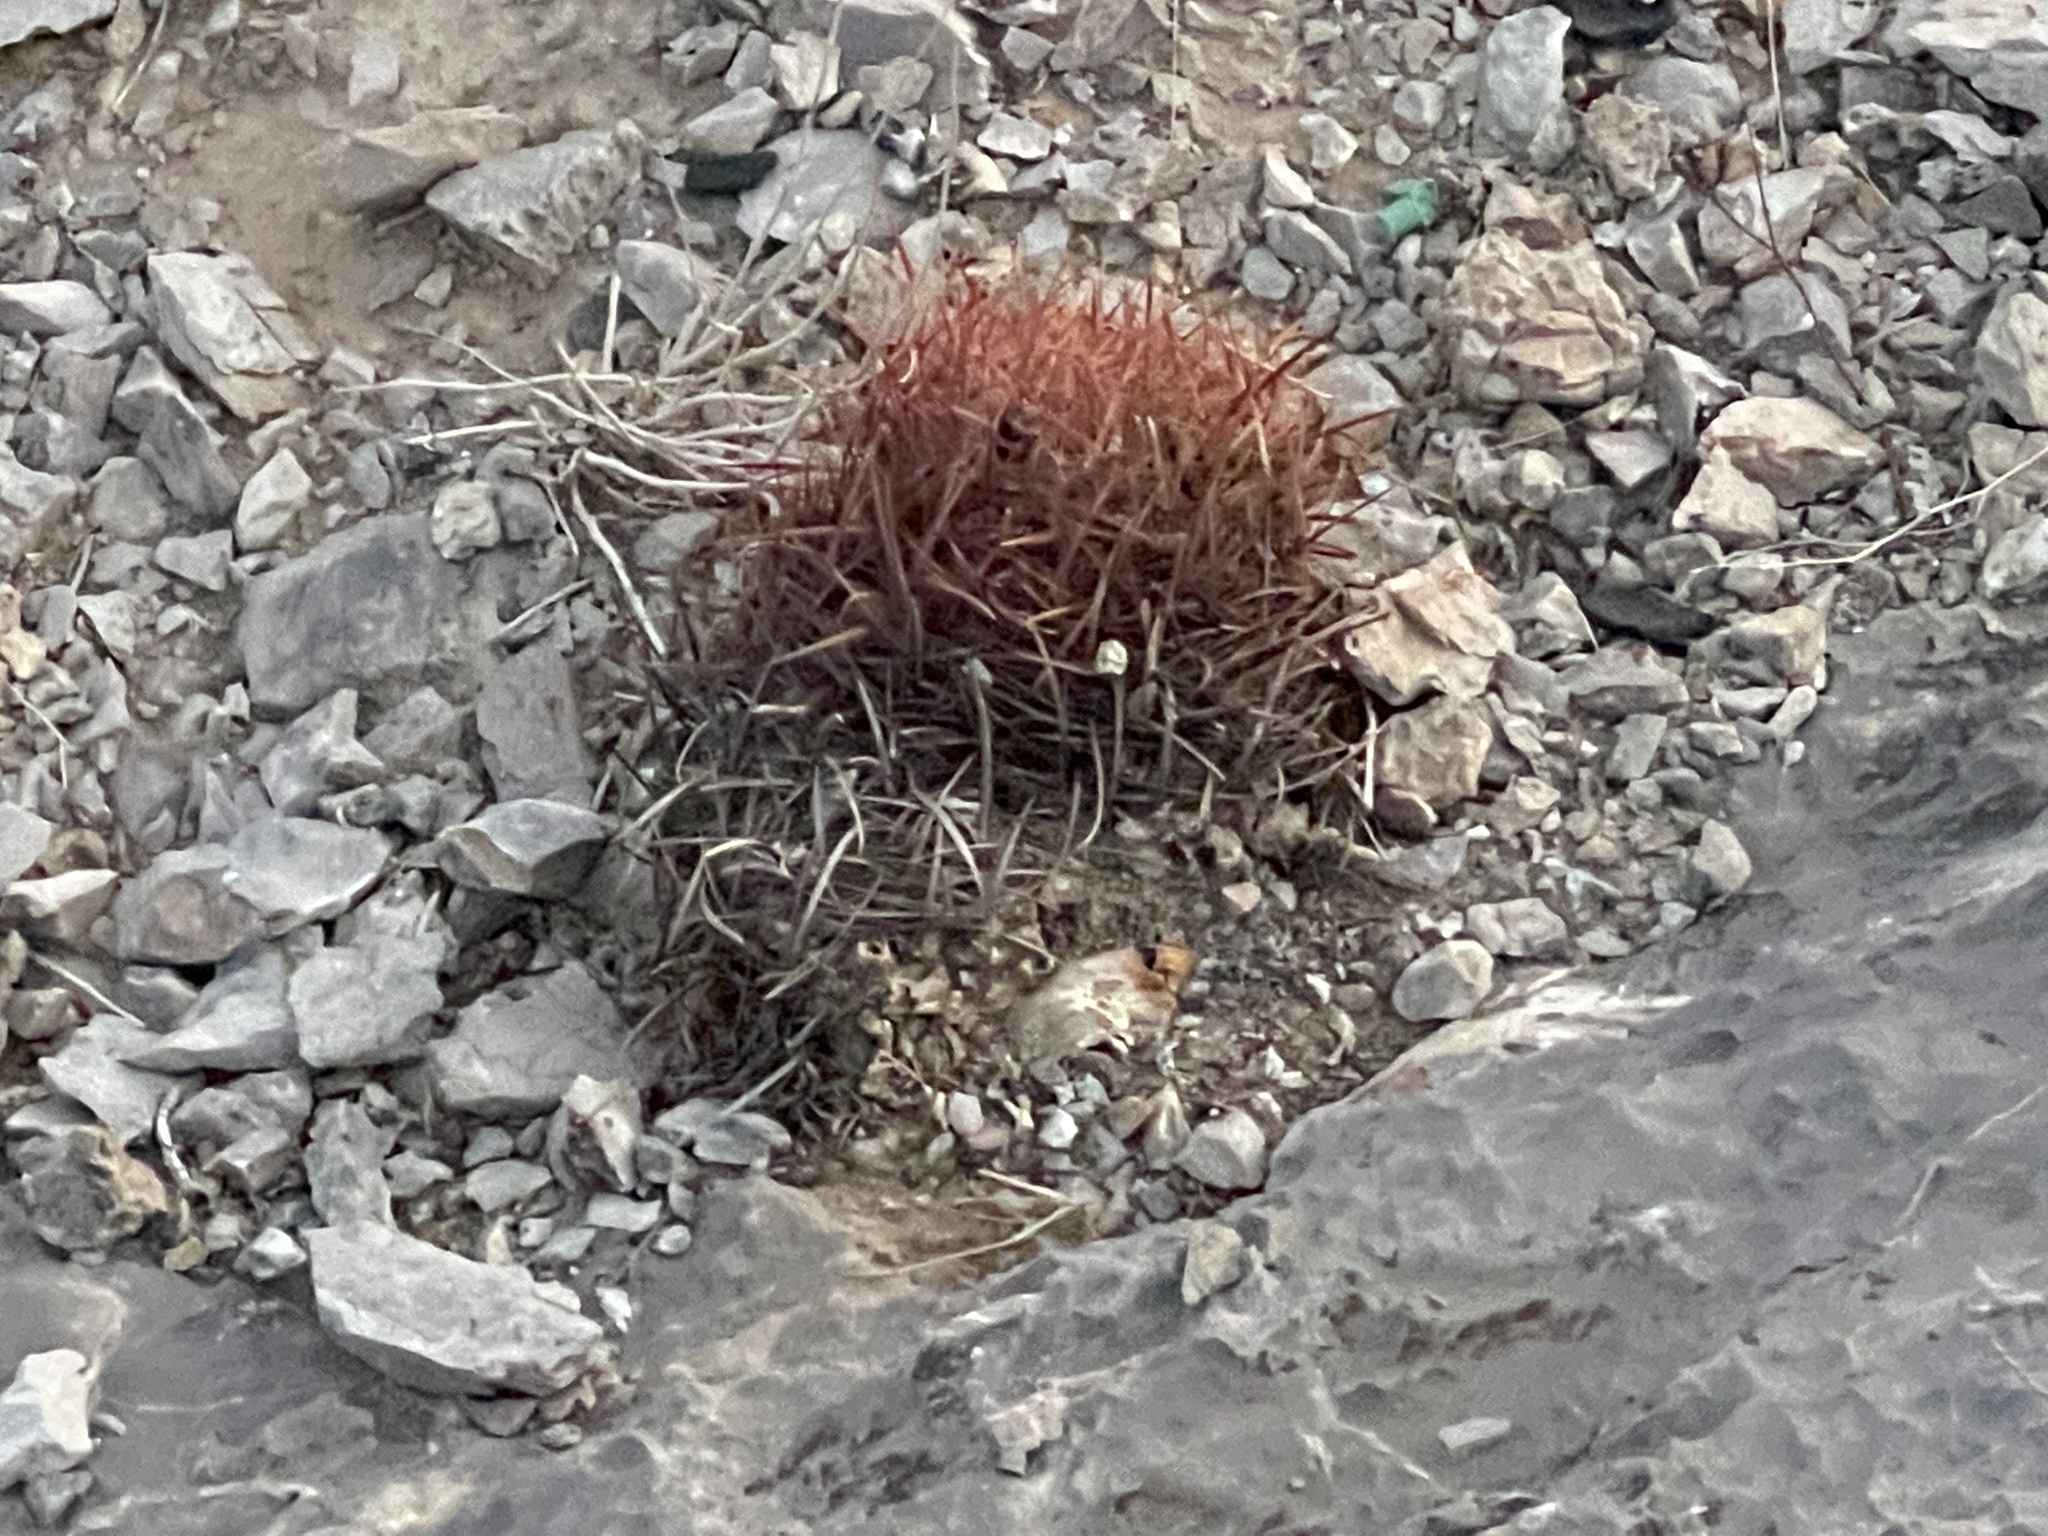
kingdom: Plantae
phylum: Tracheophyta
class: Magnoliopsida
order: Caryophyllales
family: Cactaceae
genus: Ferocactus
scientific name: Ferocactus cylindraceus
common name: California barrel cactus
